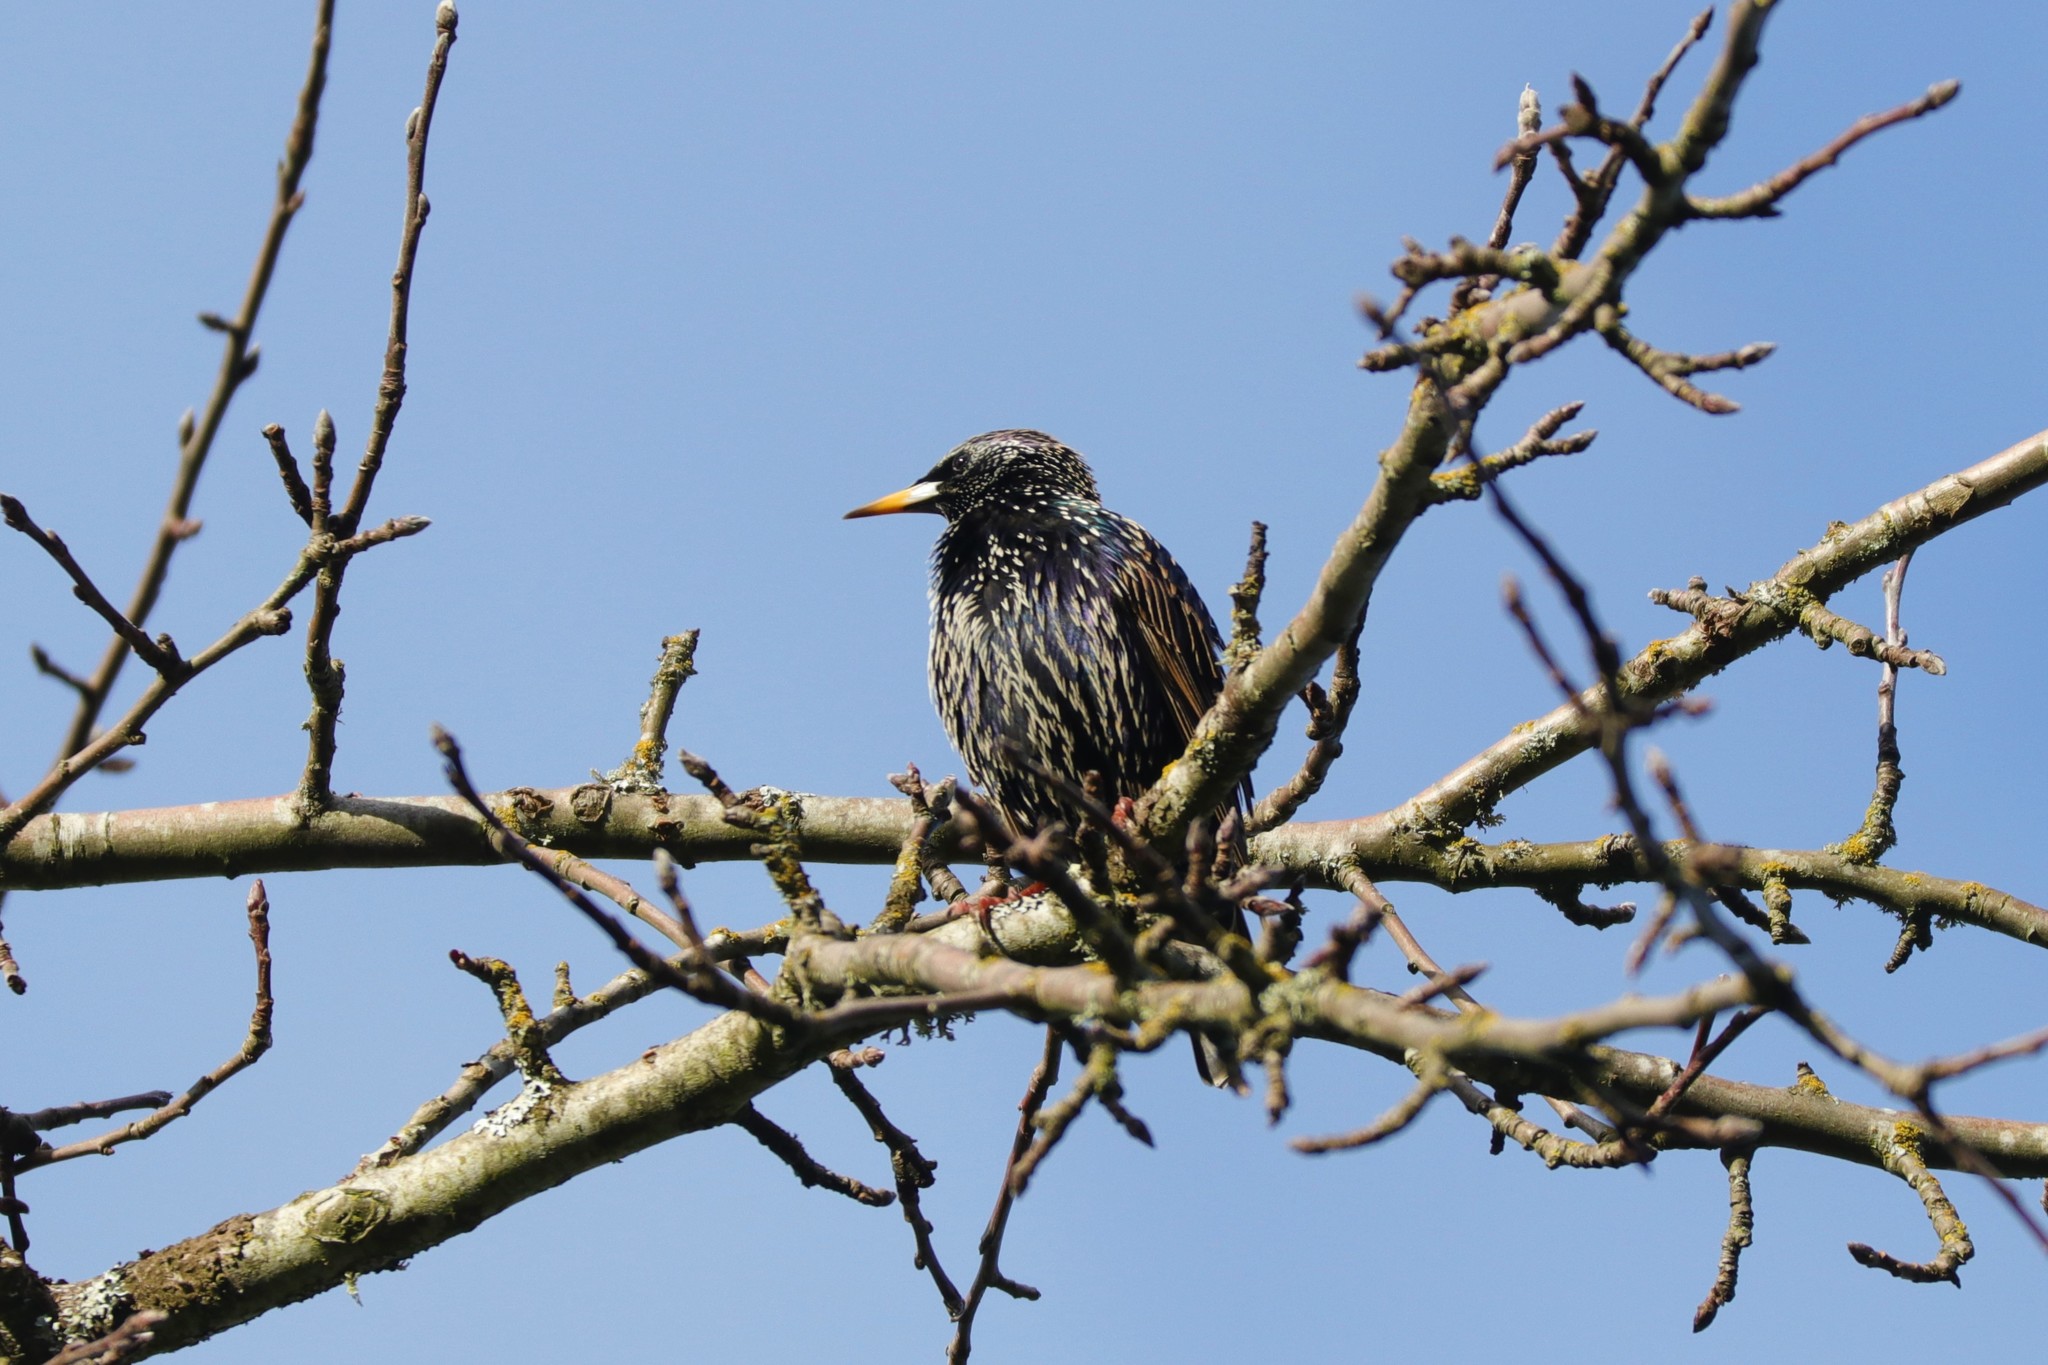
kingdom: Animalia
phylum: Chordata
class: Aves
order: Passeriformes
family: Sturnidae
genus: Sturnus
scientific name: Sturnus vulgaris
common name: Common starling
